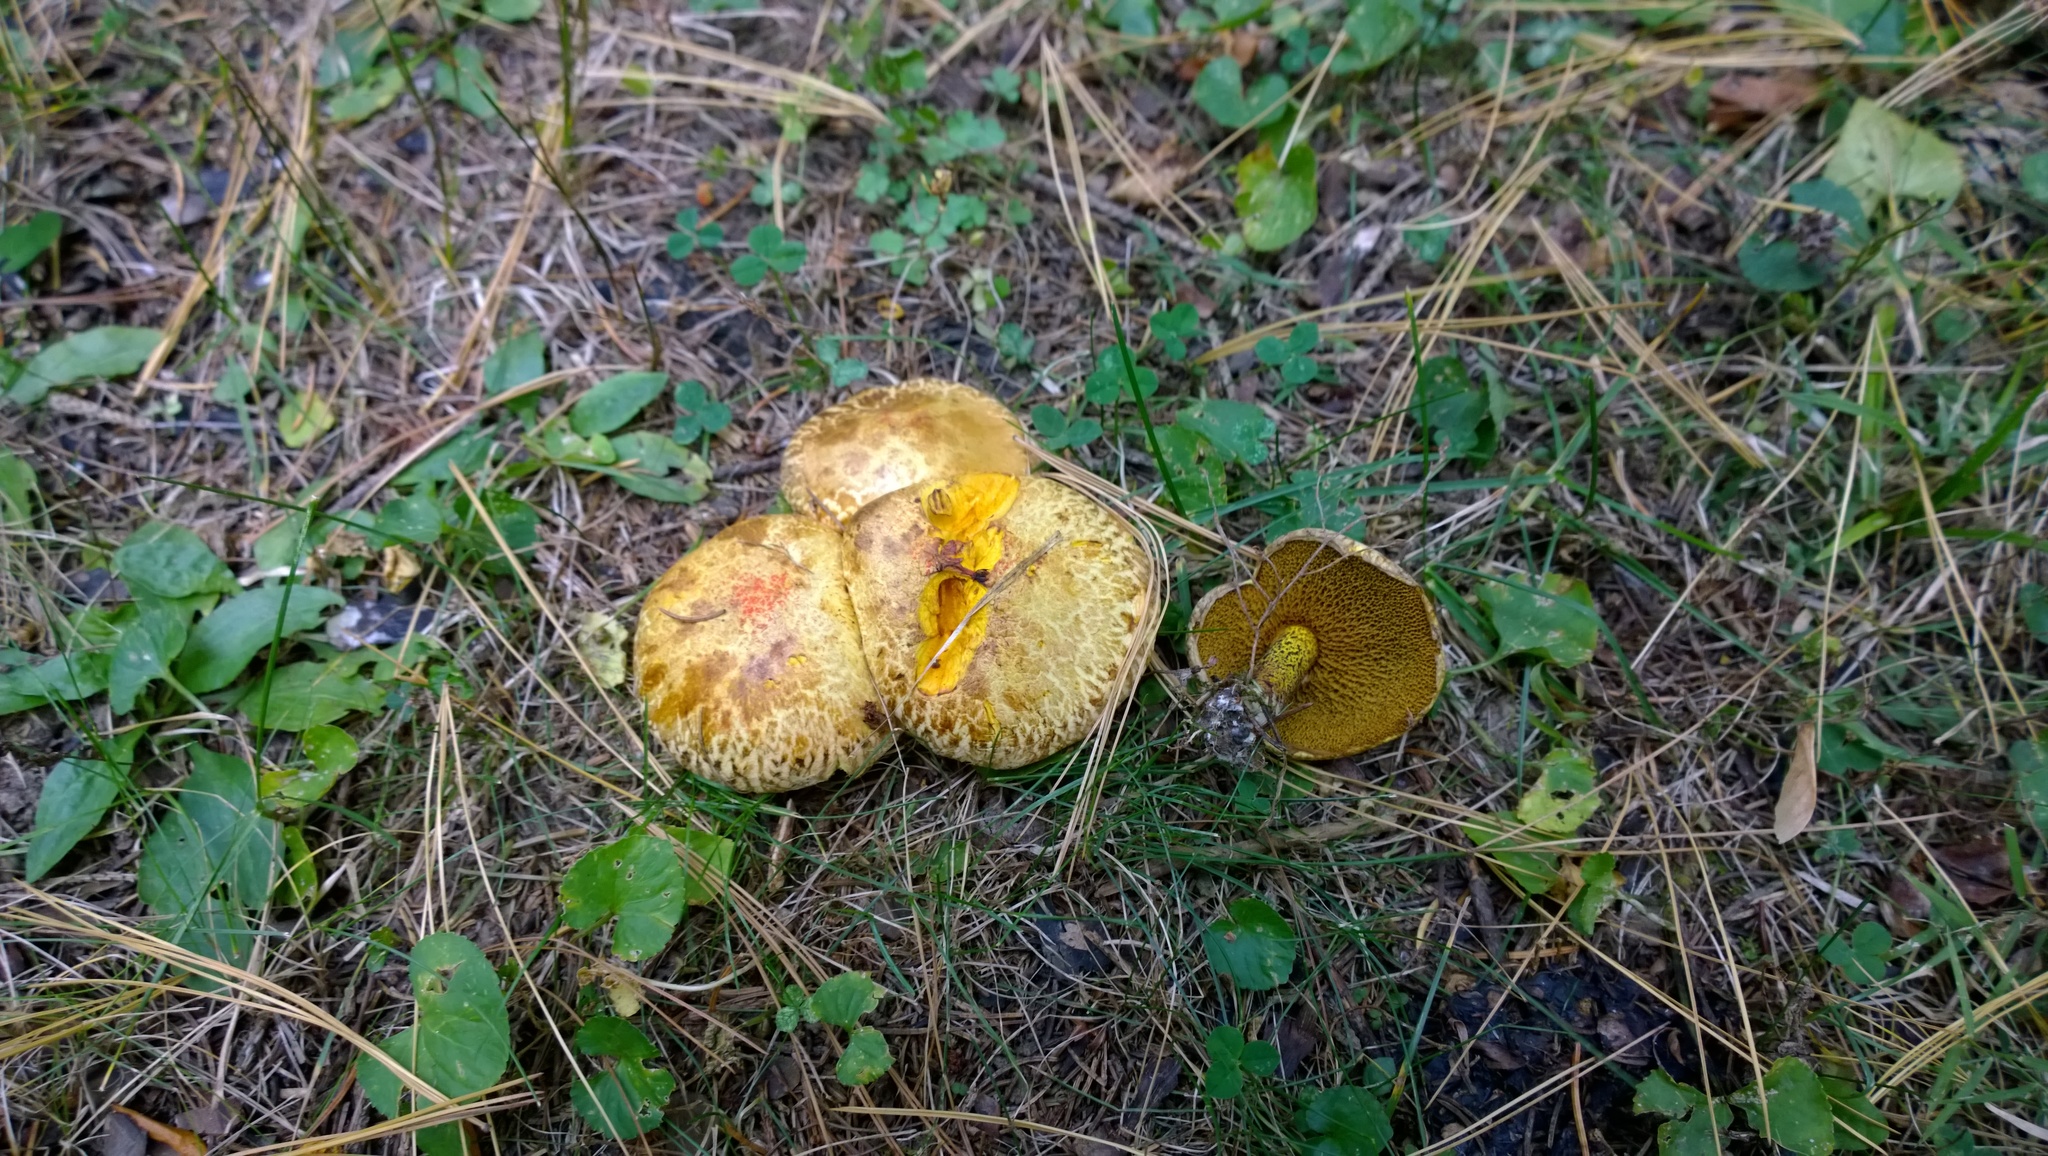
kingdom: Fungi
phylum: Basidiomycota
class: Agaricomycetes
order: Boletales
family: Suillaceae
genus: Suillus
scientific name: Suillus americanus
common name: Chicken fat mushroom
